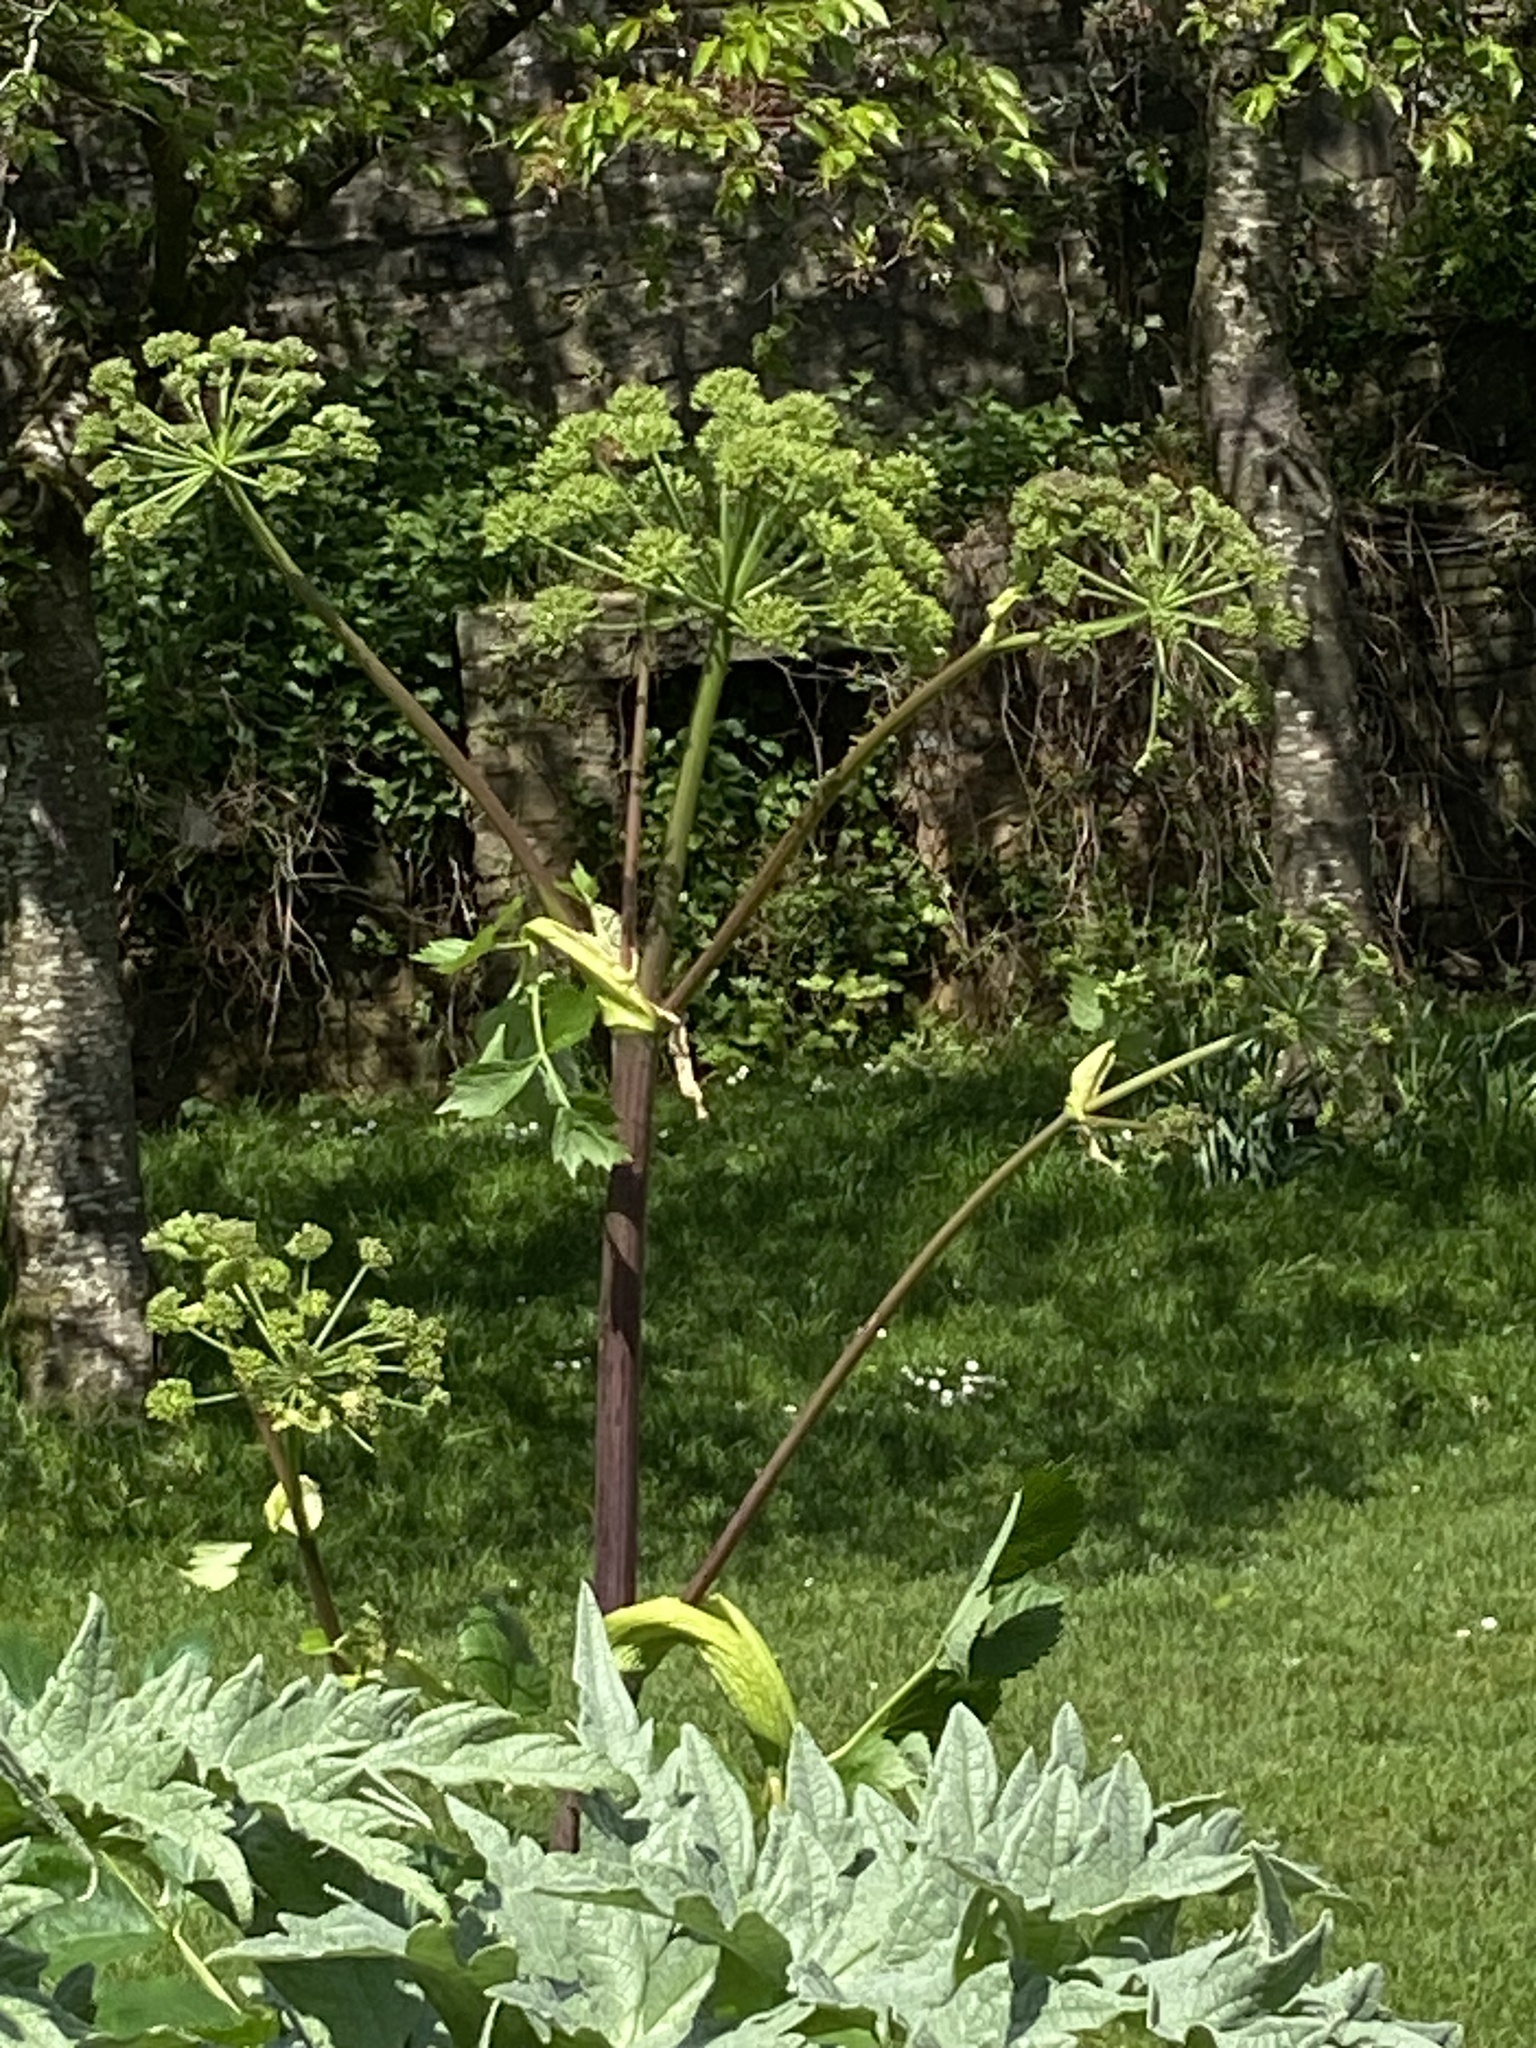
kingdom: Plantae
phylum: Tracheophyta
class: Magnoliopsida
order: Apiales
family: Apiaceae
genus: Angelica
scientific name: Angelica archangelica
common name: Garden angelica
